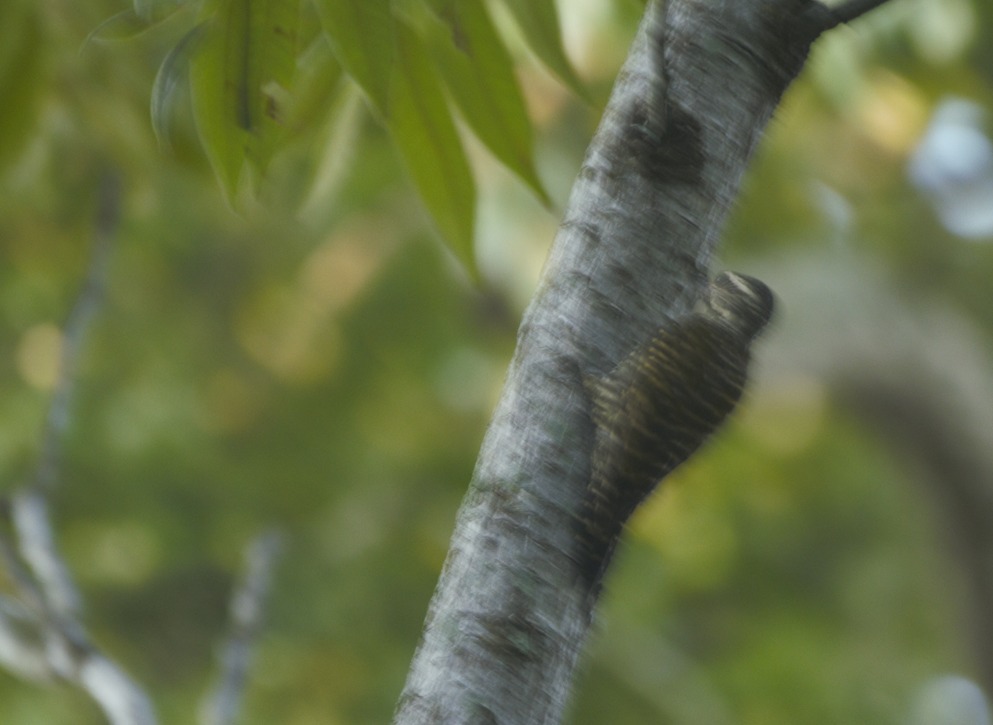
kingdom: Animalia
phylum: Chordata
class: Aves
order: Piciformes
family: Picidae
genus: Veniliornis
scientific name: Veniliornis spilogaster
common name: White-spotted woodpecker
